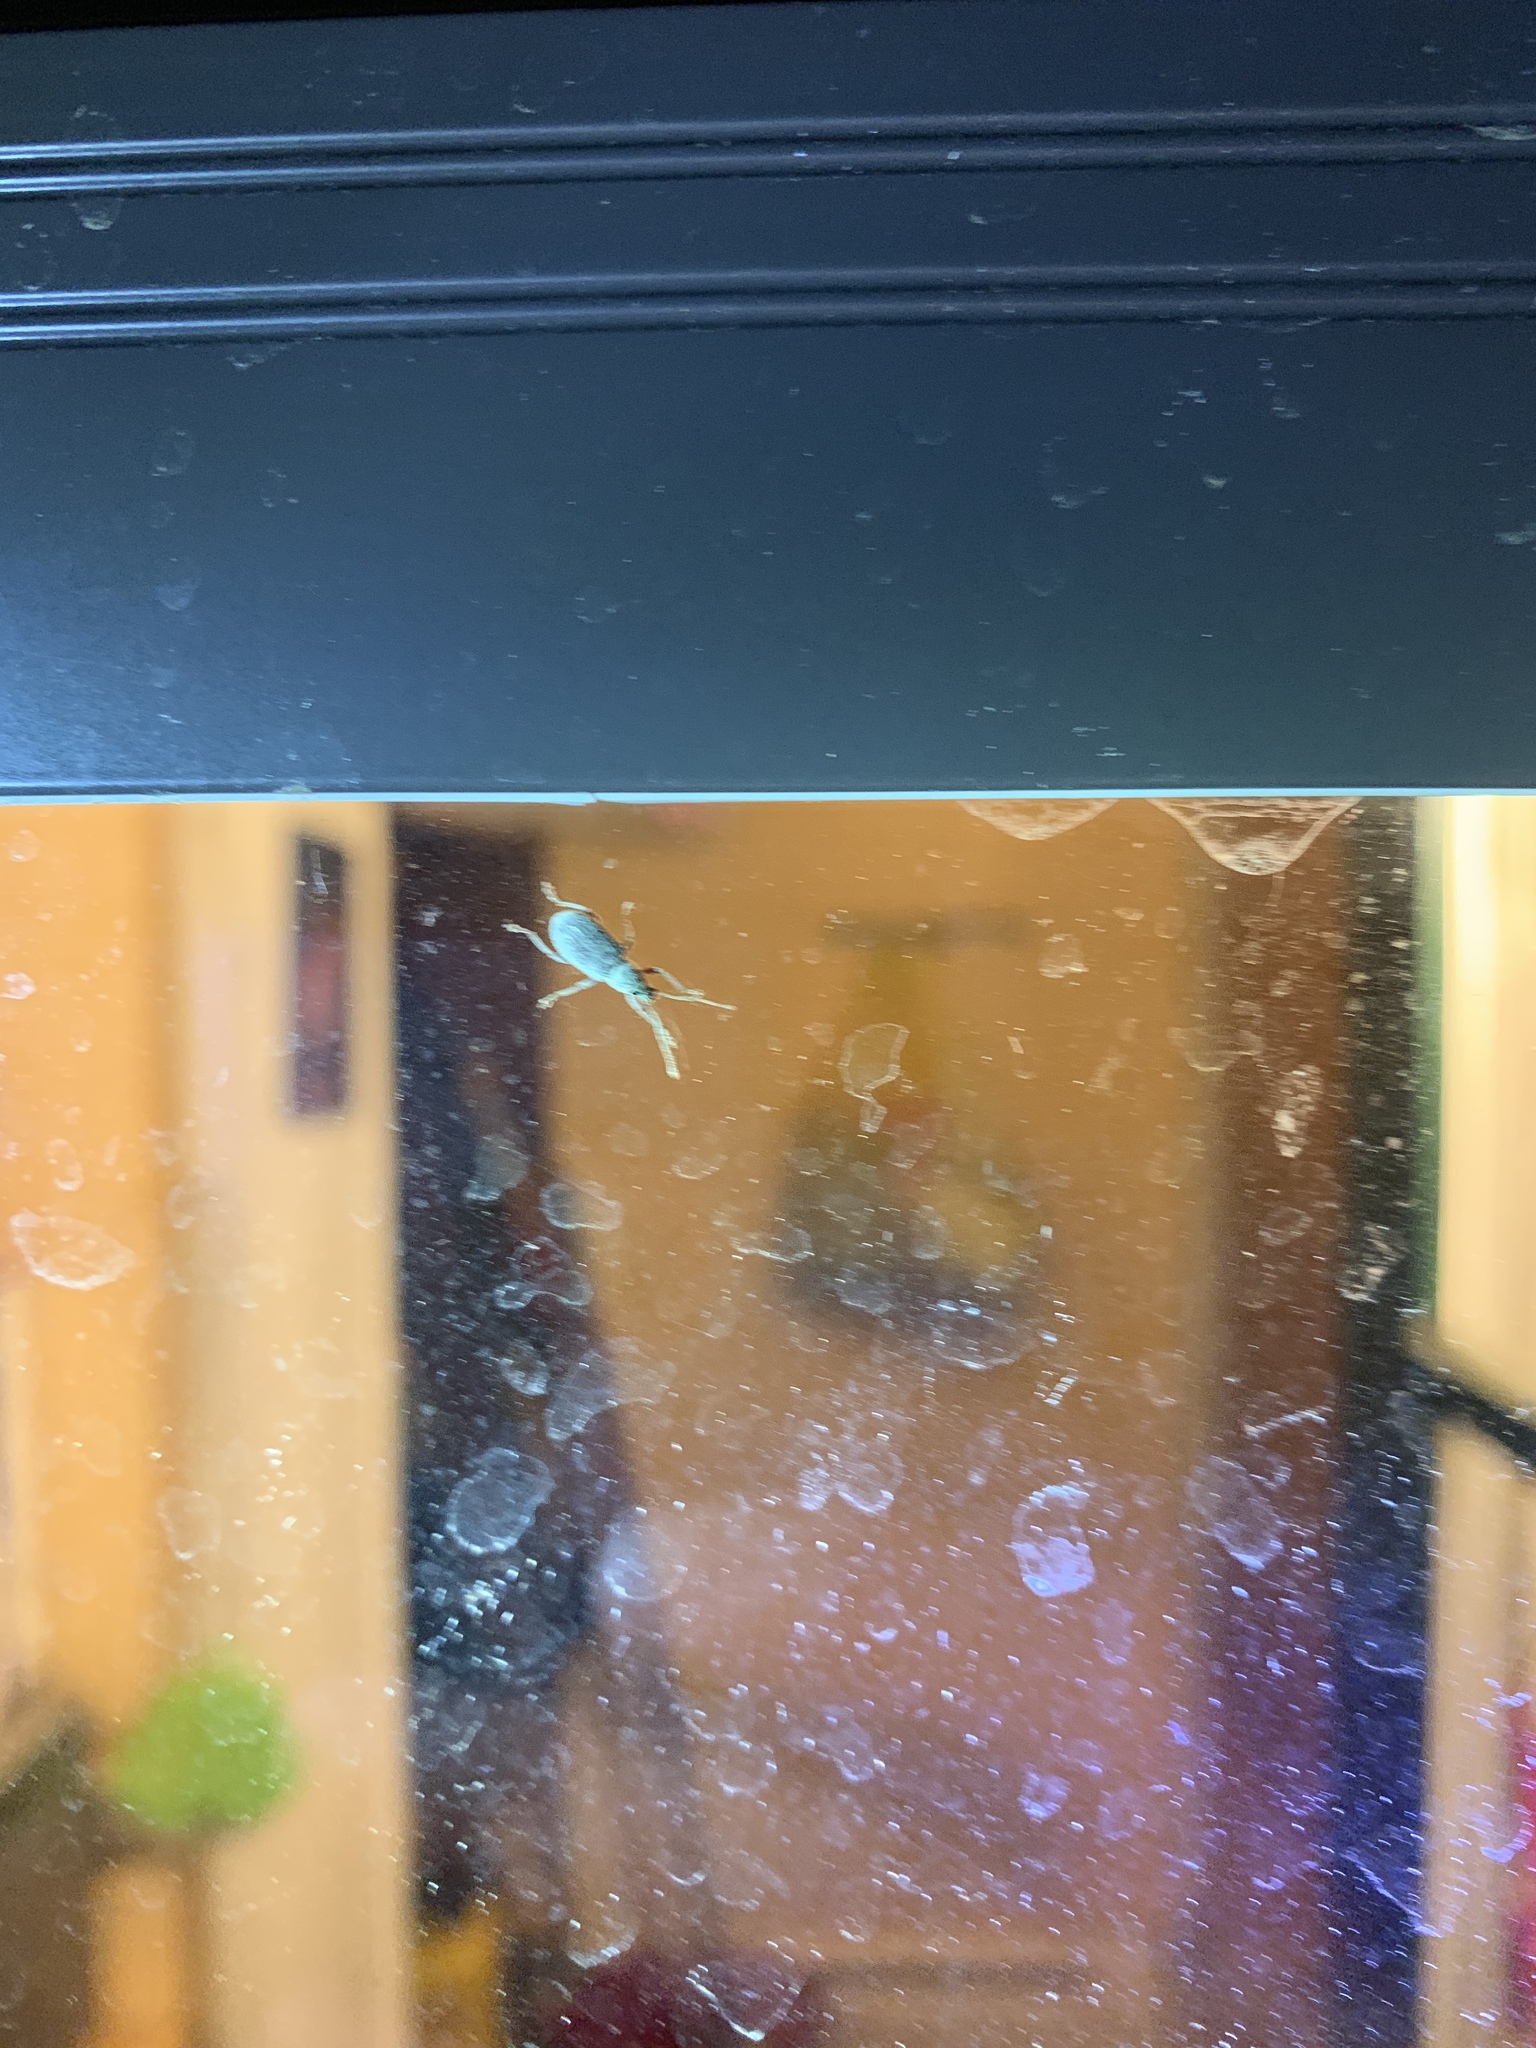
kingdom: Animalia
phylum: Arthropoda
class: Insecta
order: Coleoptera
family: Curculionidae
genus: Cyrtepistomus
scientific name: Cyrtepistomus castaneus
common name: Weevil
